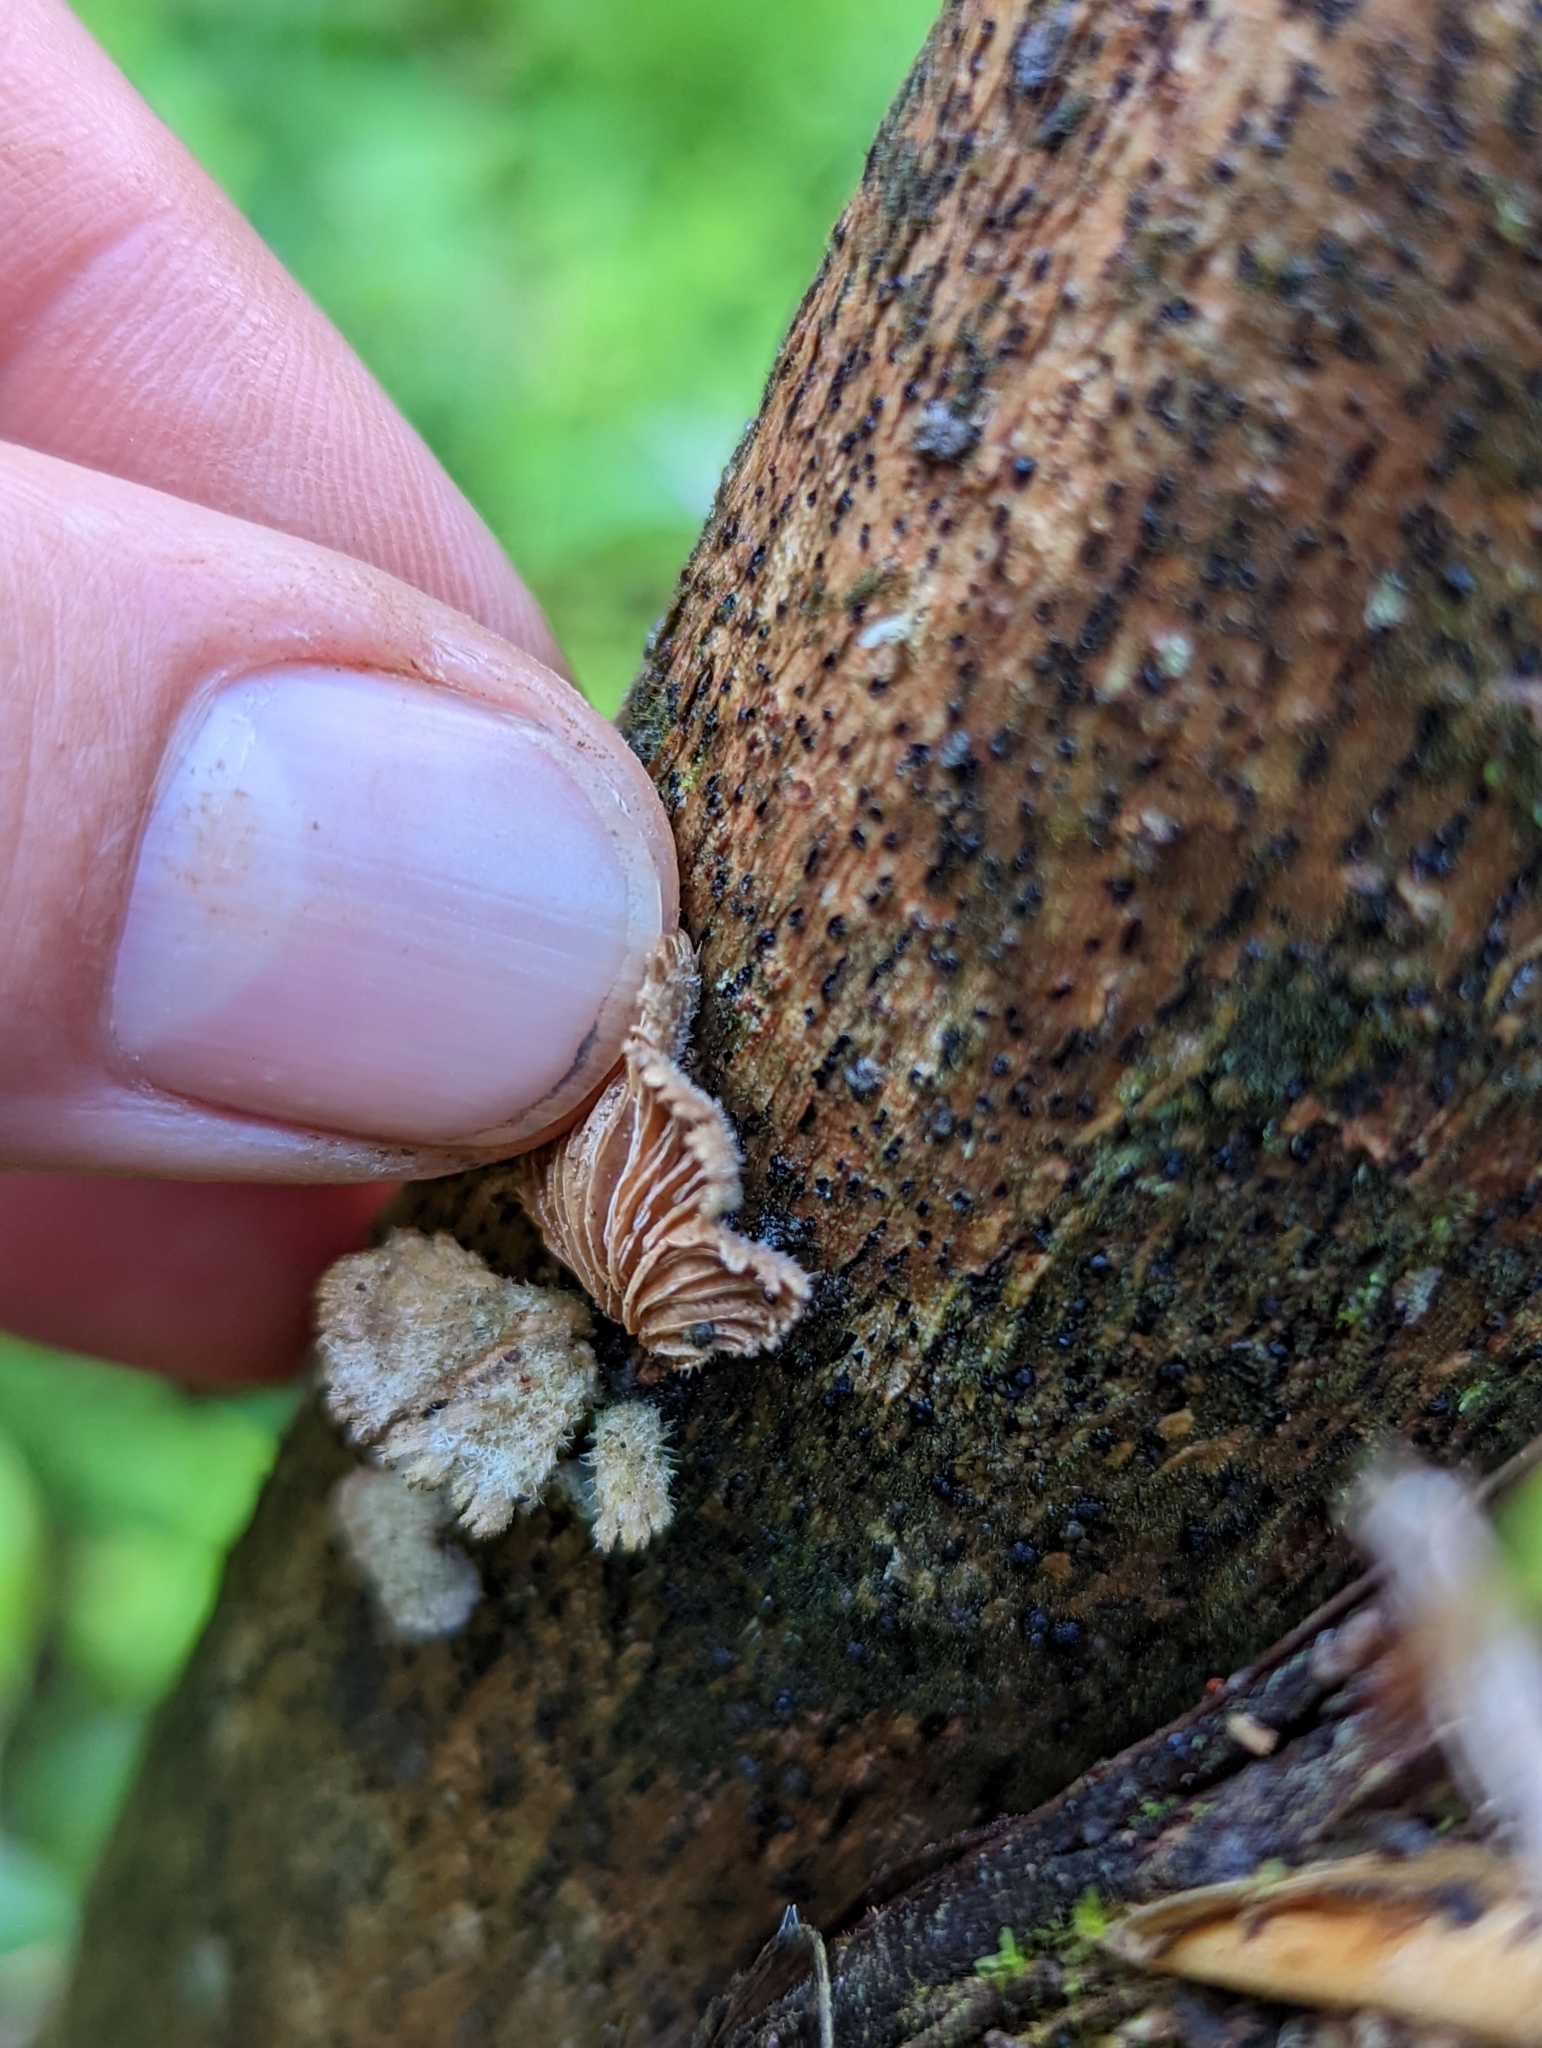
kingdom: Fungi
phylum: Basidiomycota
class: Agaricomycetes
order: Agaricales
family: Schizophyllaceae
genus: Schizophyllum
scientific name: Schizophyllum commune
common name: Common porecrust
